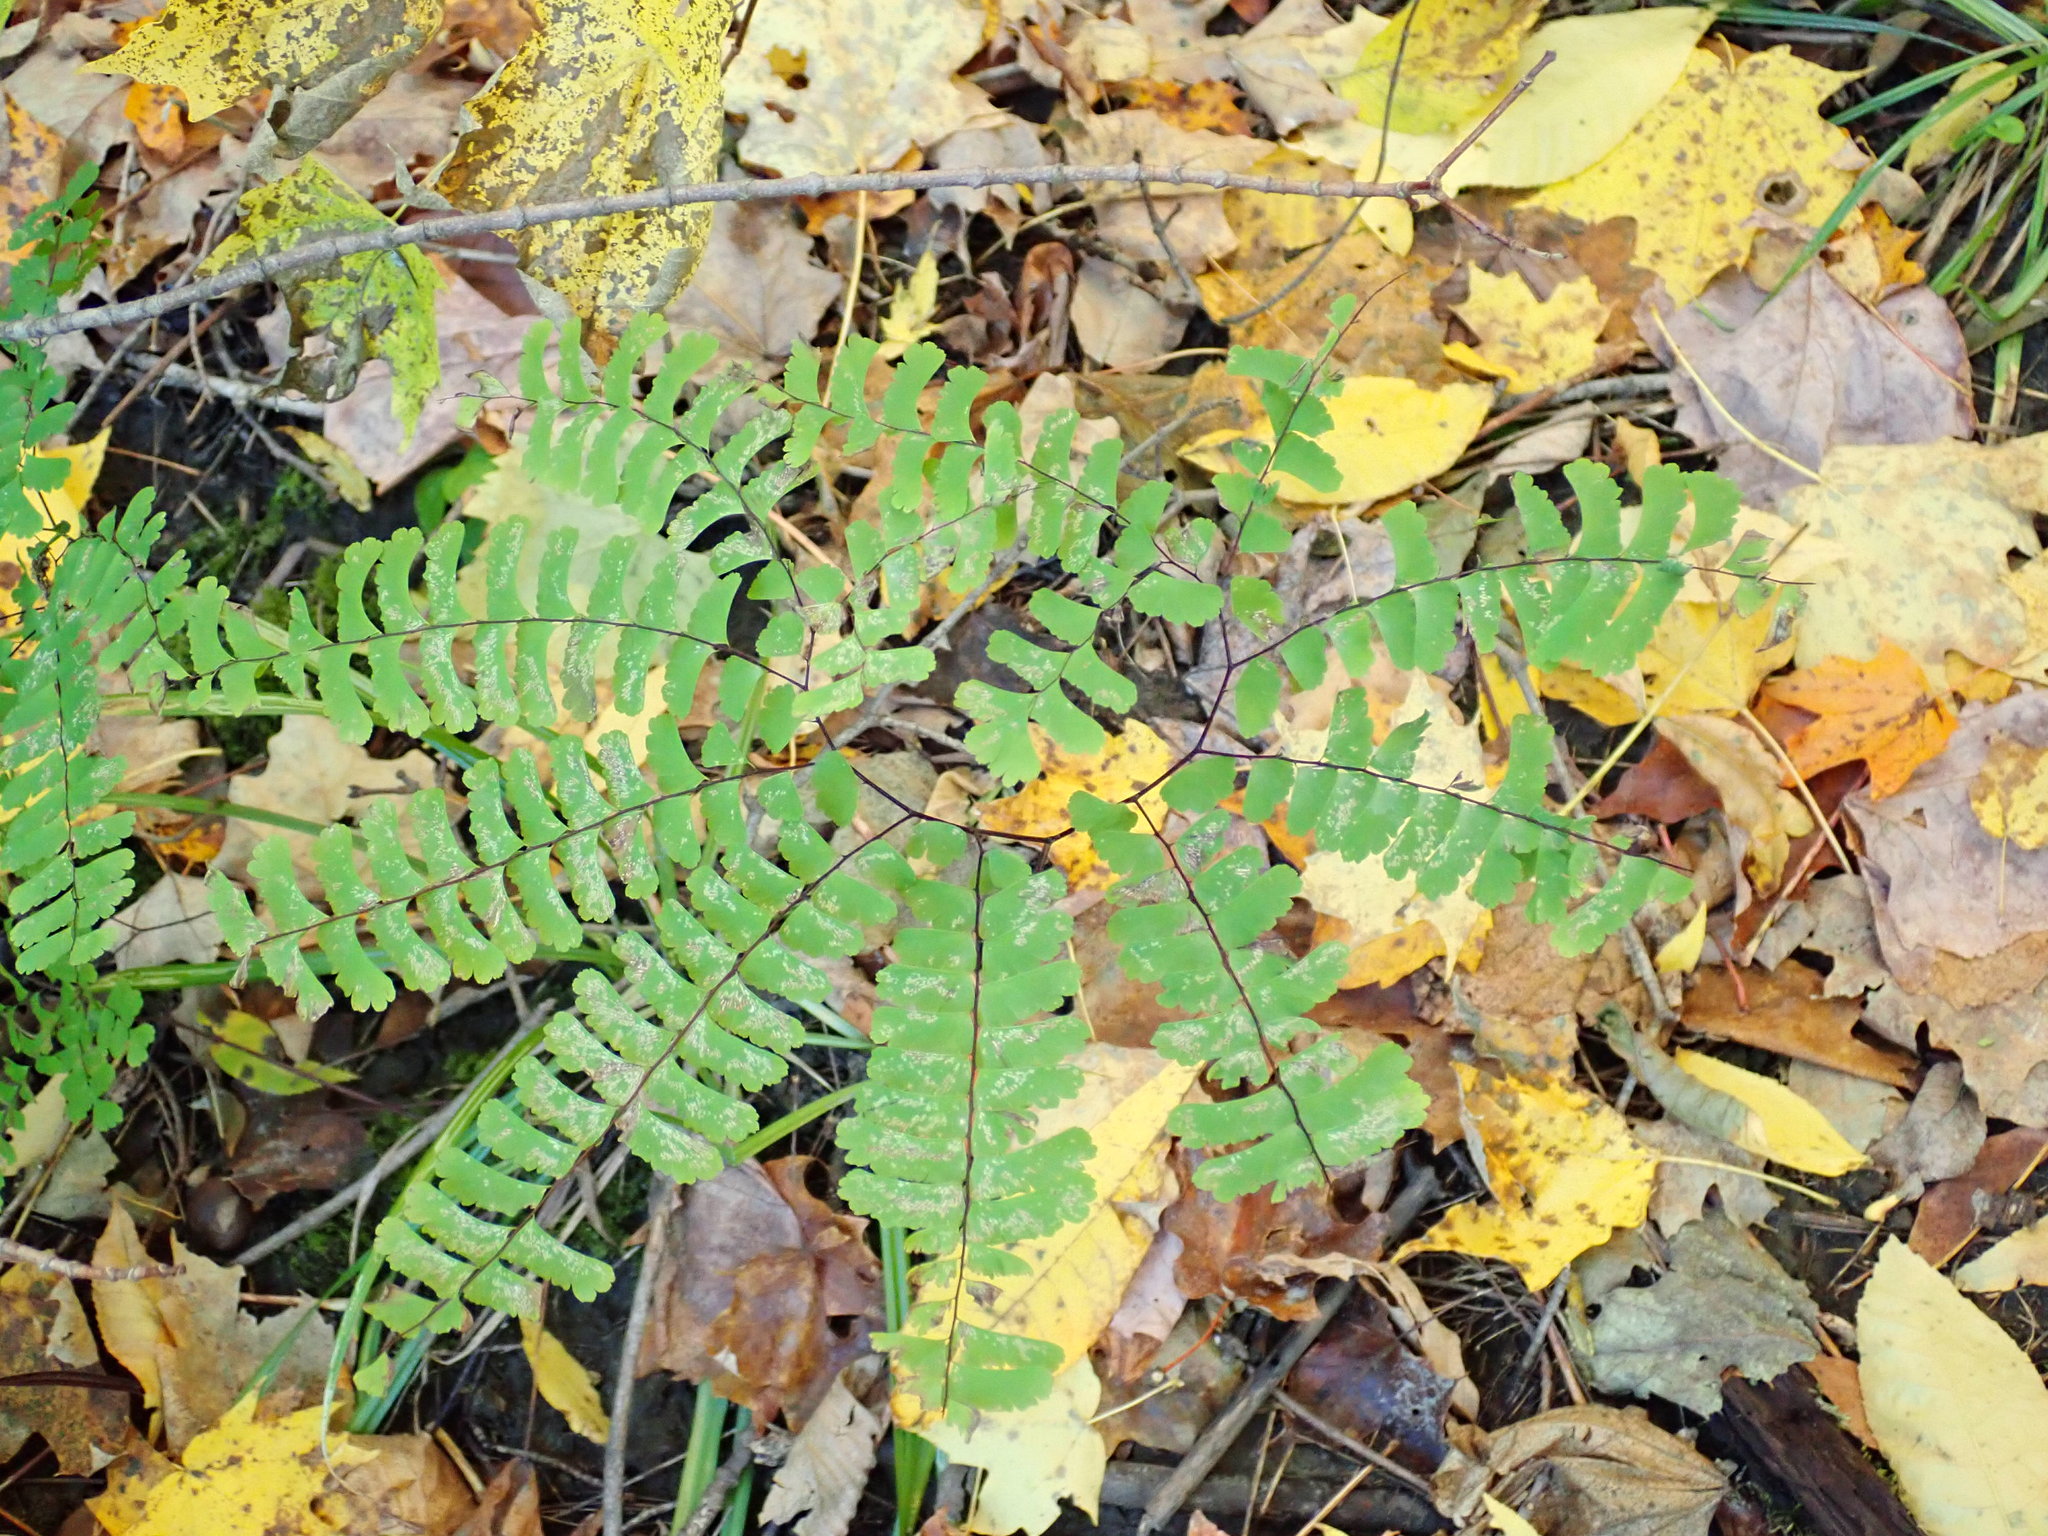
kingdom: Plantae
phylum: Tracheophyta
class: Polypodiopsida
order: Polypodiales
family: Pteridaceae
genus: Adiantum
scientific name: Adiantum pedatum
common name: Five-finger fern
